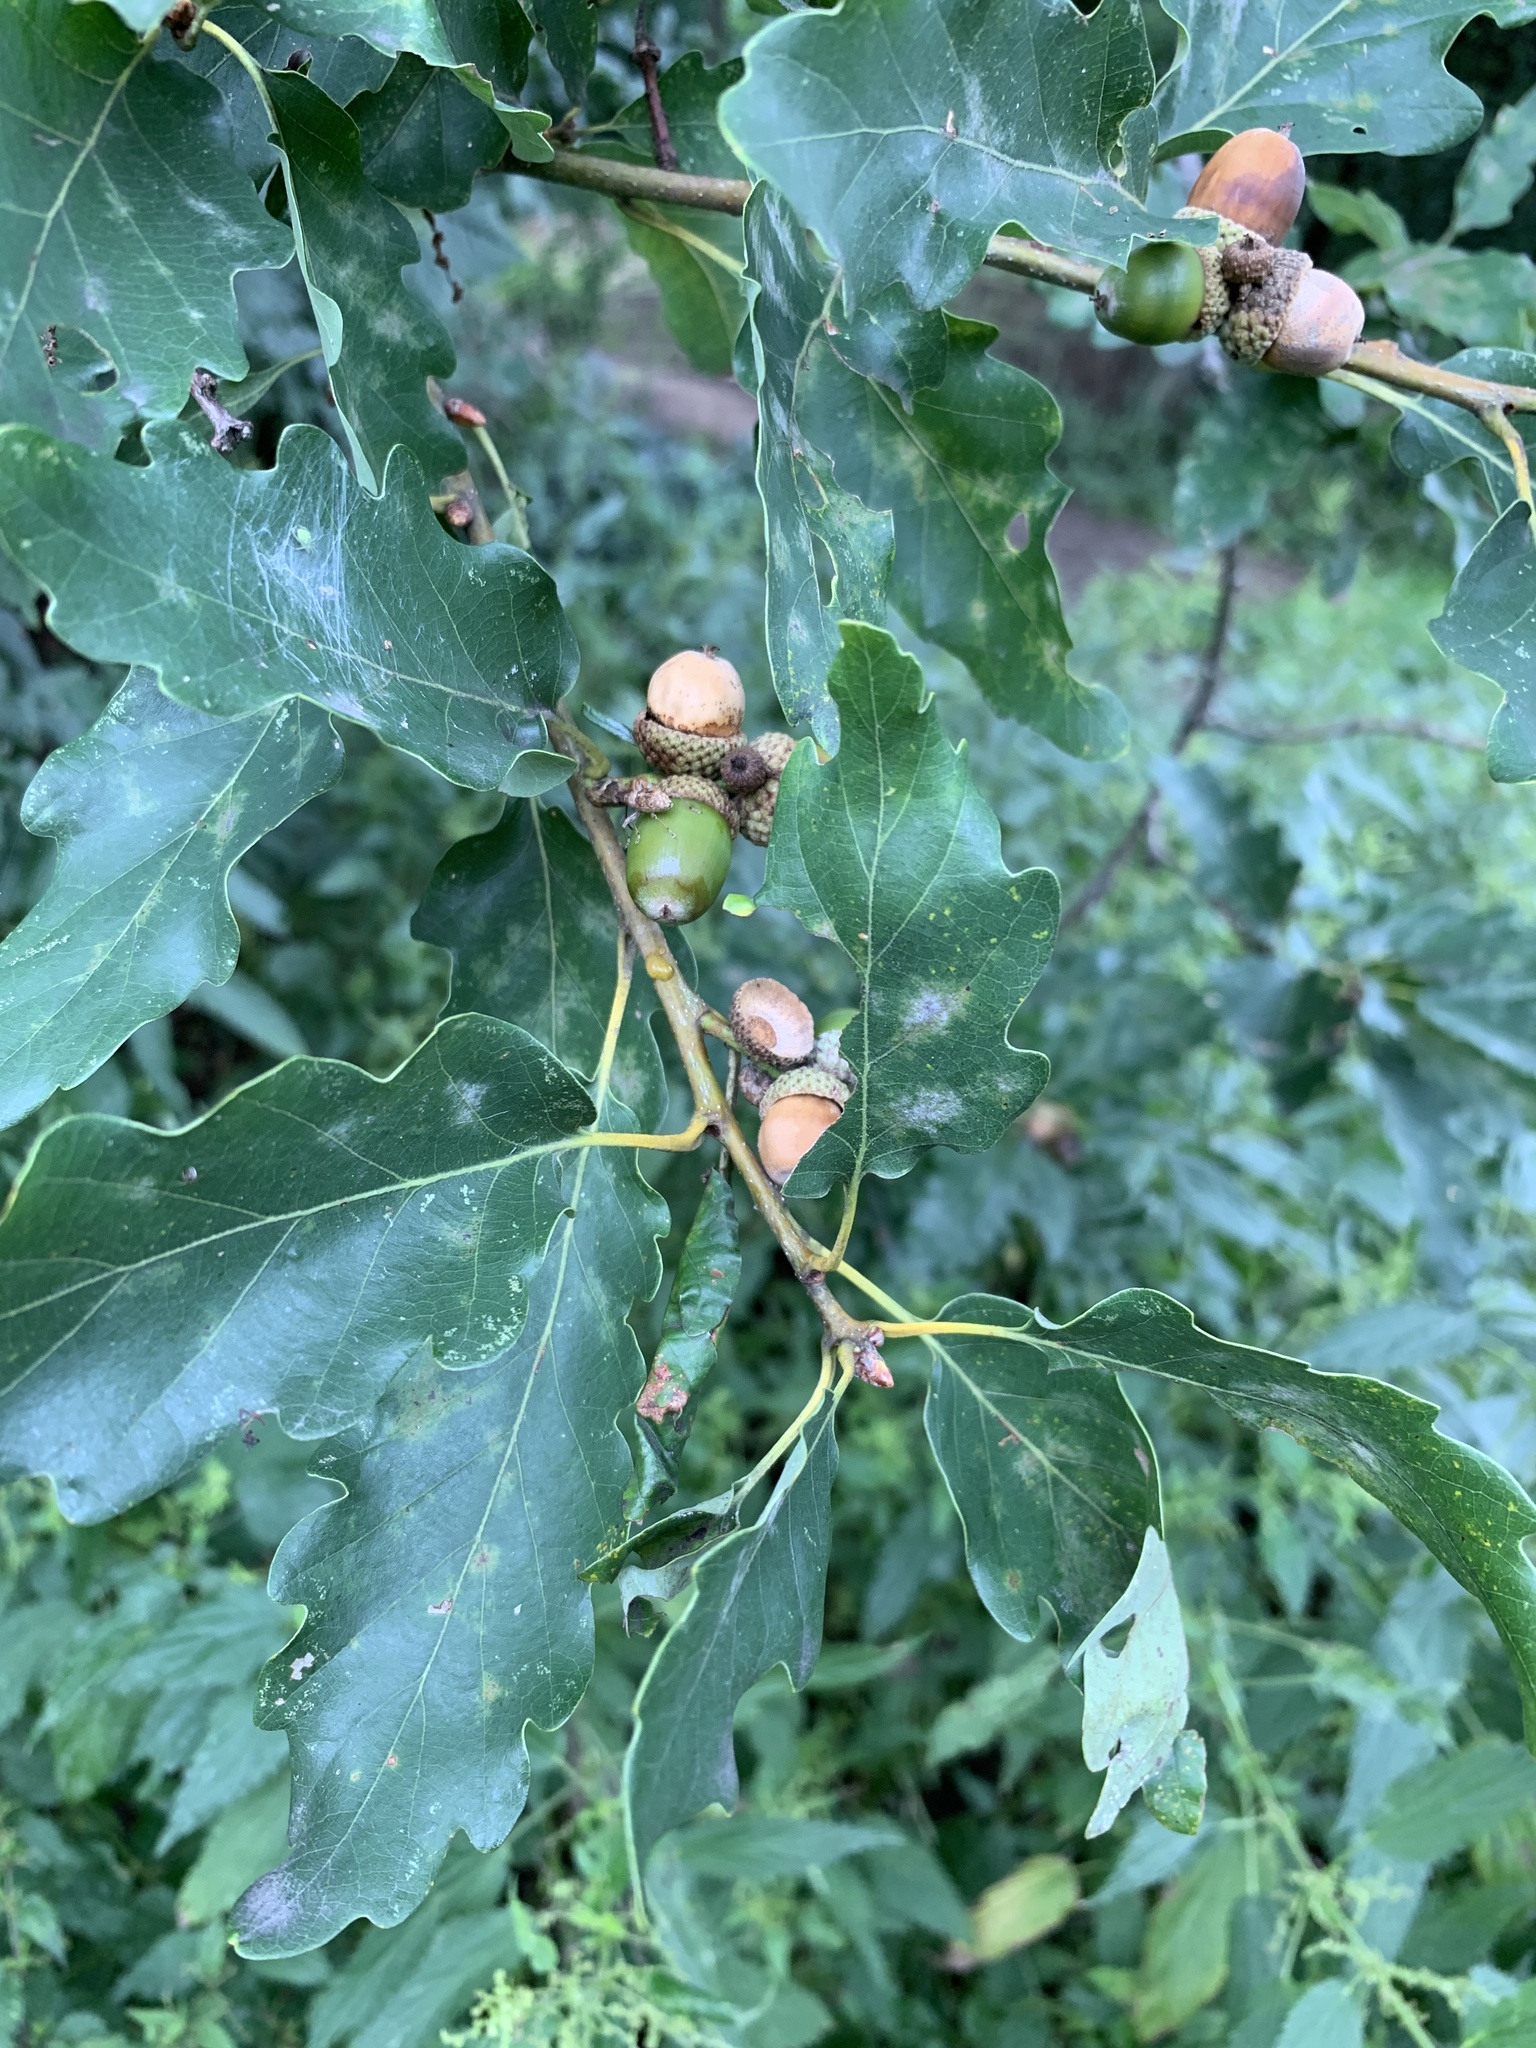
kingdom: Plantae
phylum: Tracheophyta
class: Magnoliopsida
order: Fagales
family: Fagaceae
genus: Quercus
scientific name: Quercus petraea
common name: Sessile oak
